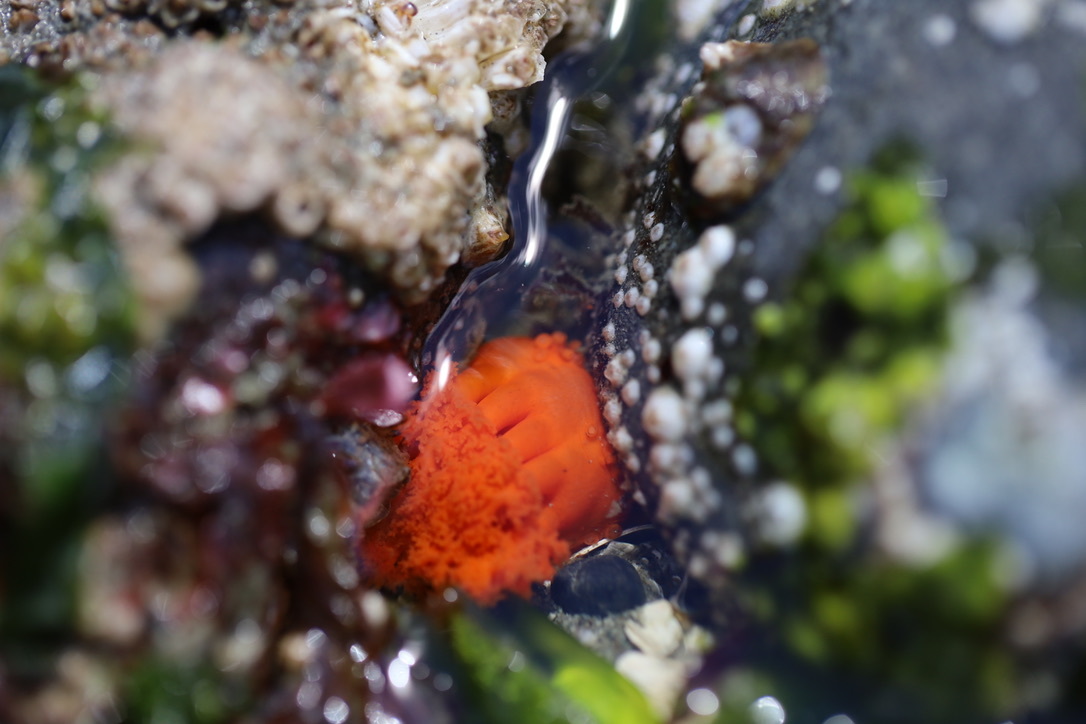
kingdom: Animalia
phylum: Echinodermata
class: Holothuroidea
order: Dendrochirotida
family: Cucumariidae
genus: Cucumaria
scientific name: Cucumaria miniata
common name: Orange sea cucumber
